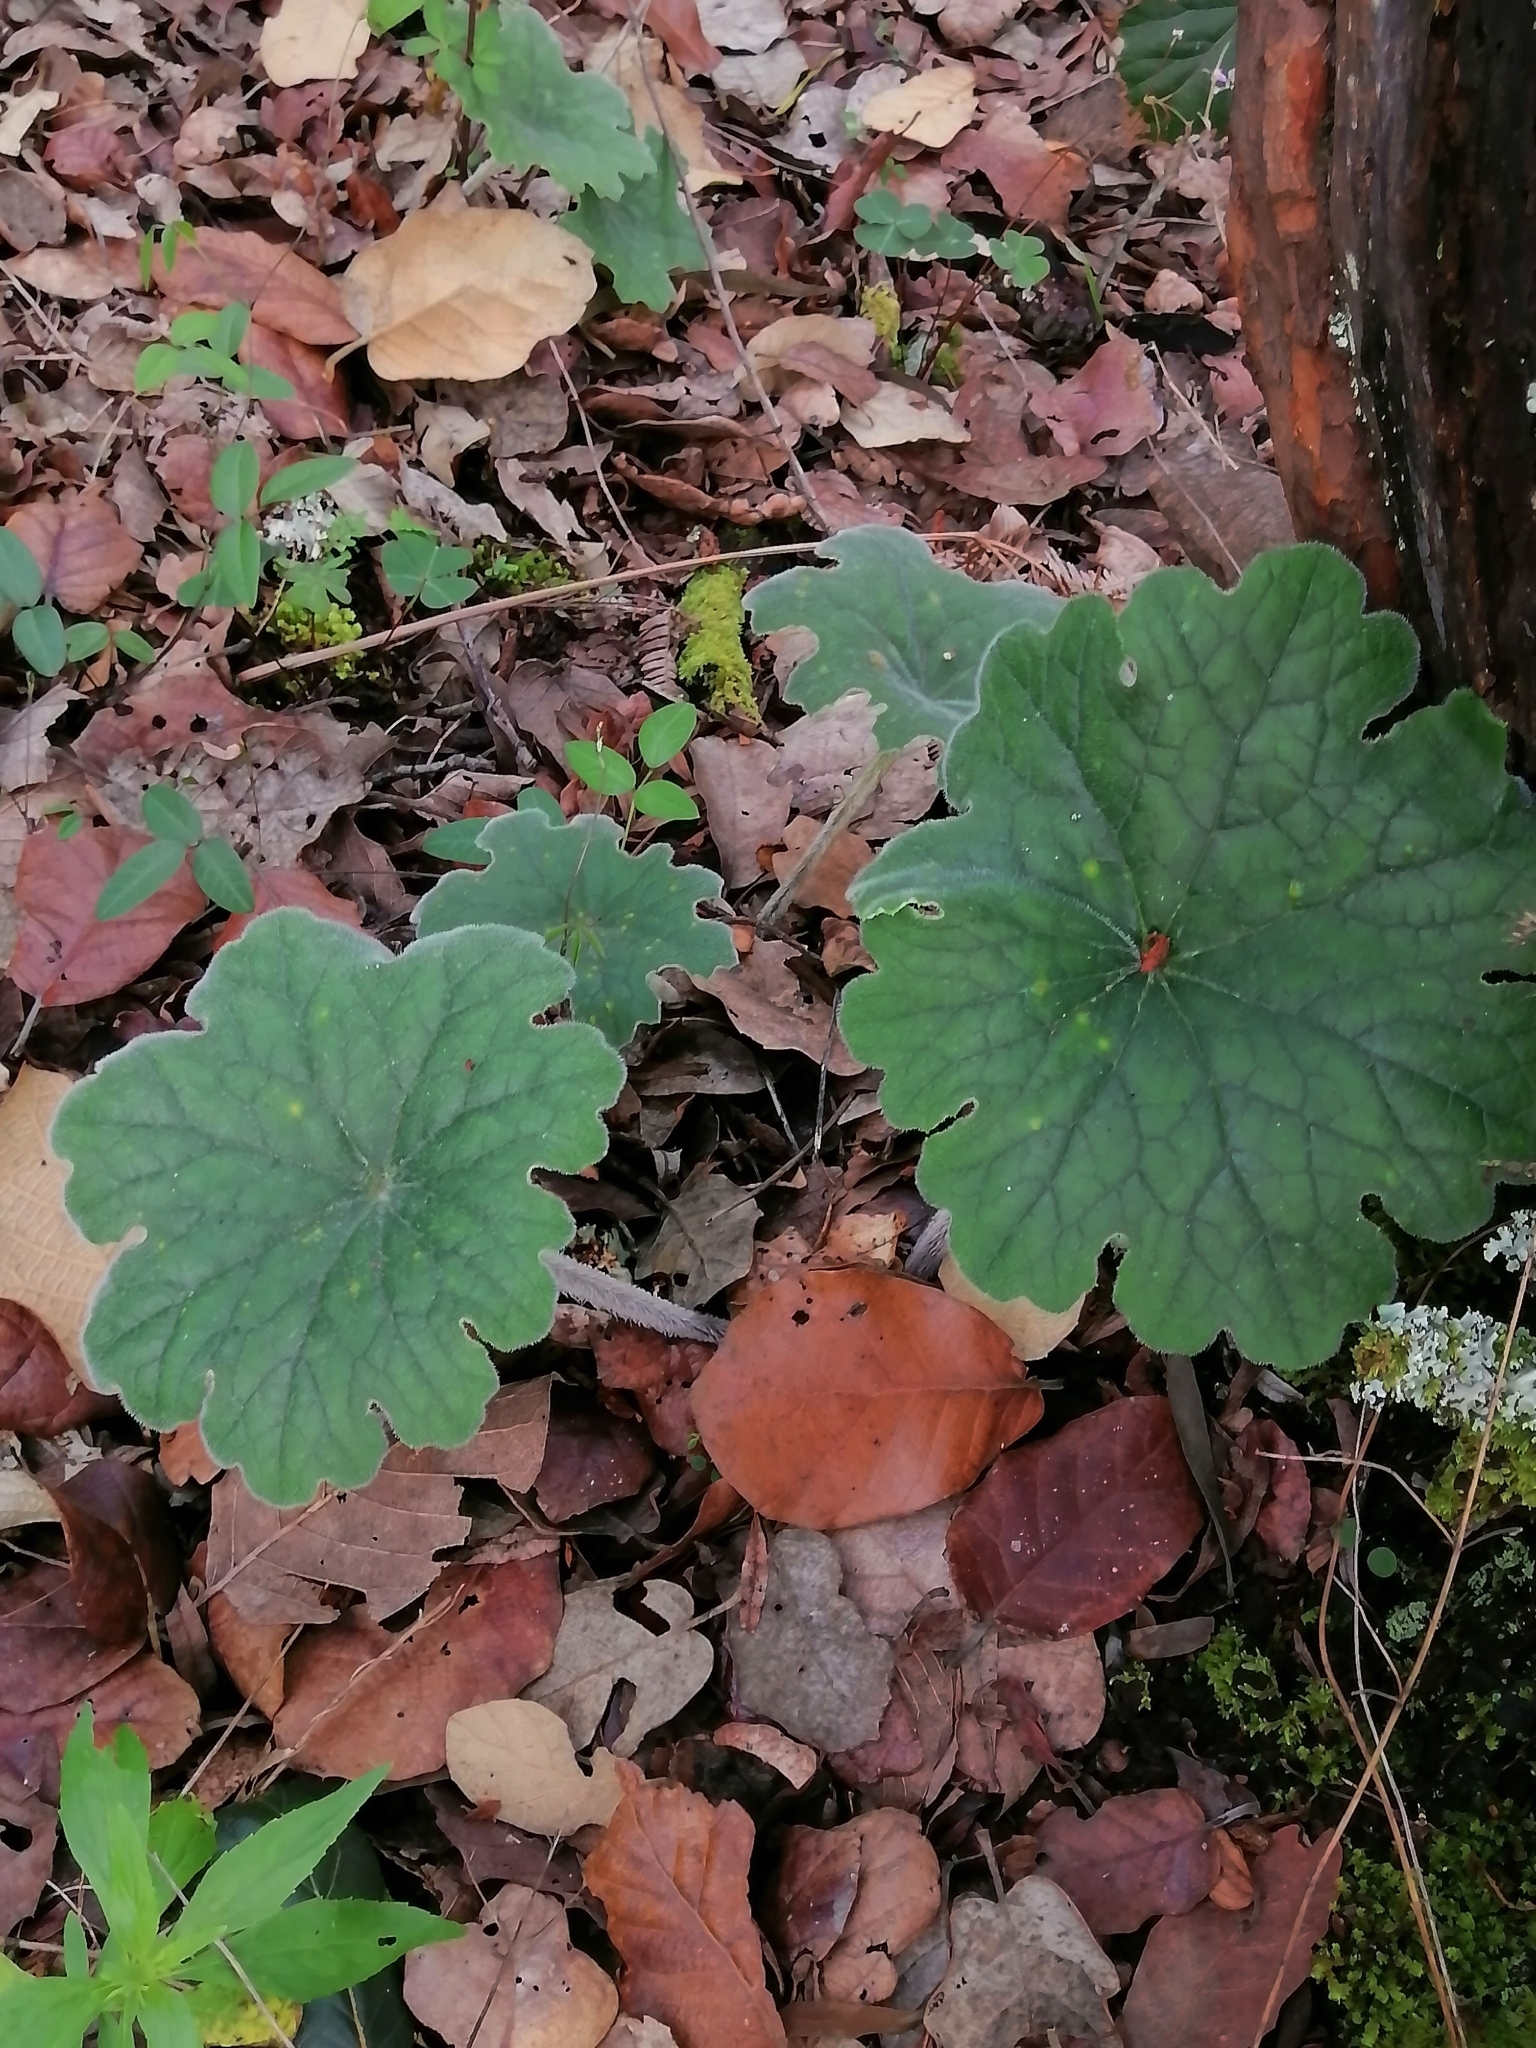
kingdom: Plantae
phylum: Tracheophyta
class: Magnoliopsida
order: Asterales
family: Asteraceae
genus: Psacalium
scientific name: Psacalium mollifolium
